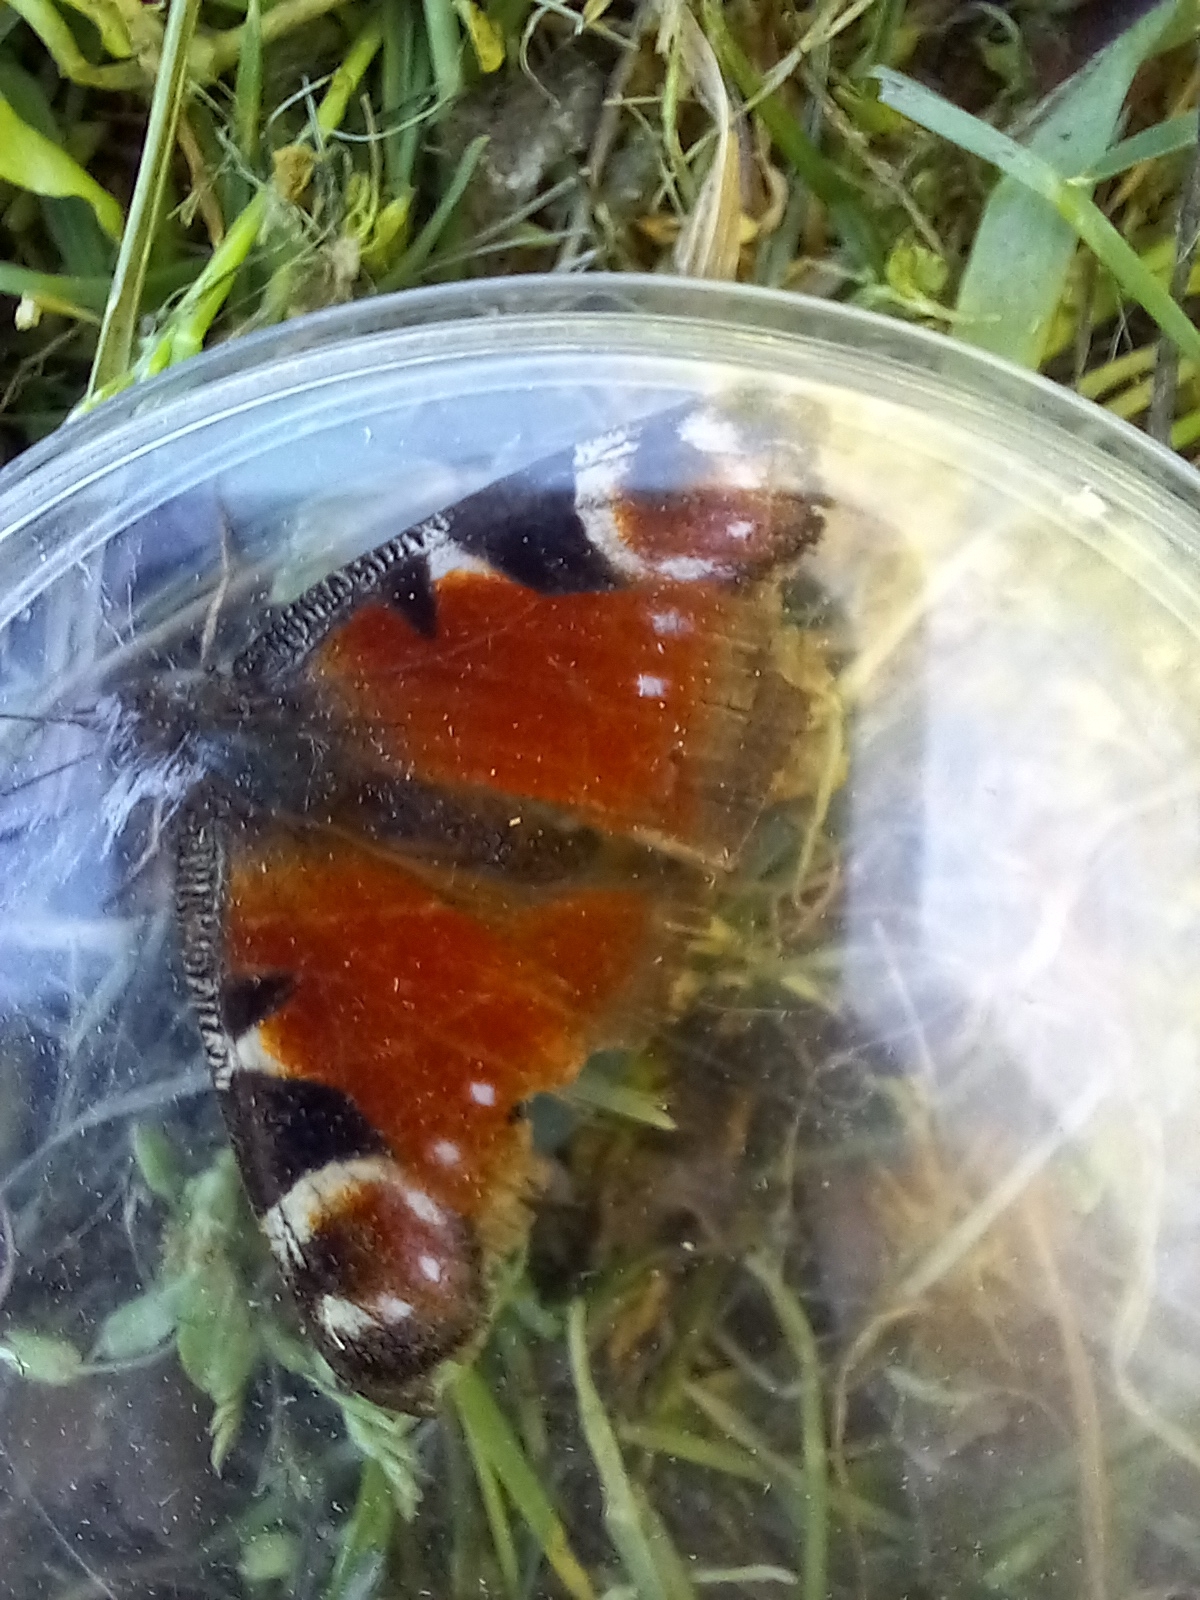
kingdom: Animalia
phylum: Arthropoda
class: Insecta
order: Lepidoptera
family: Nymphalidae
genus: Aglais
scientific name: Aglais io
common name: Peacock
